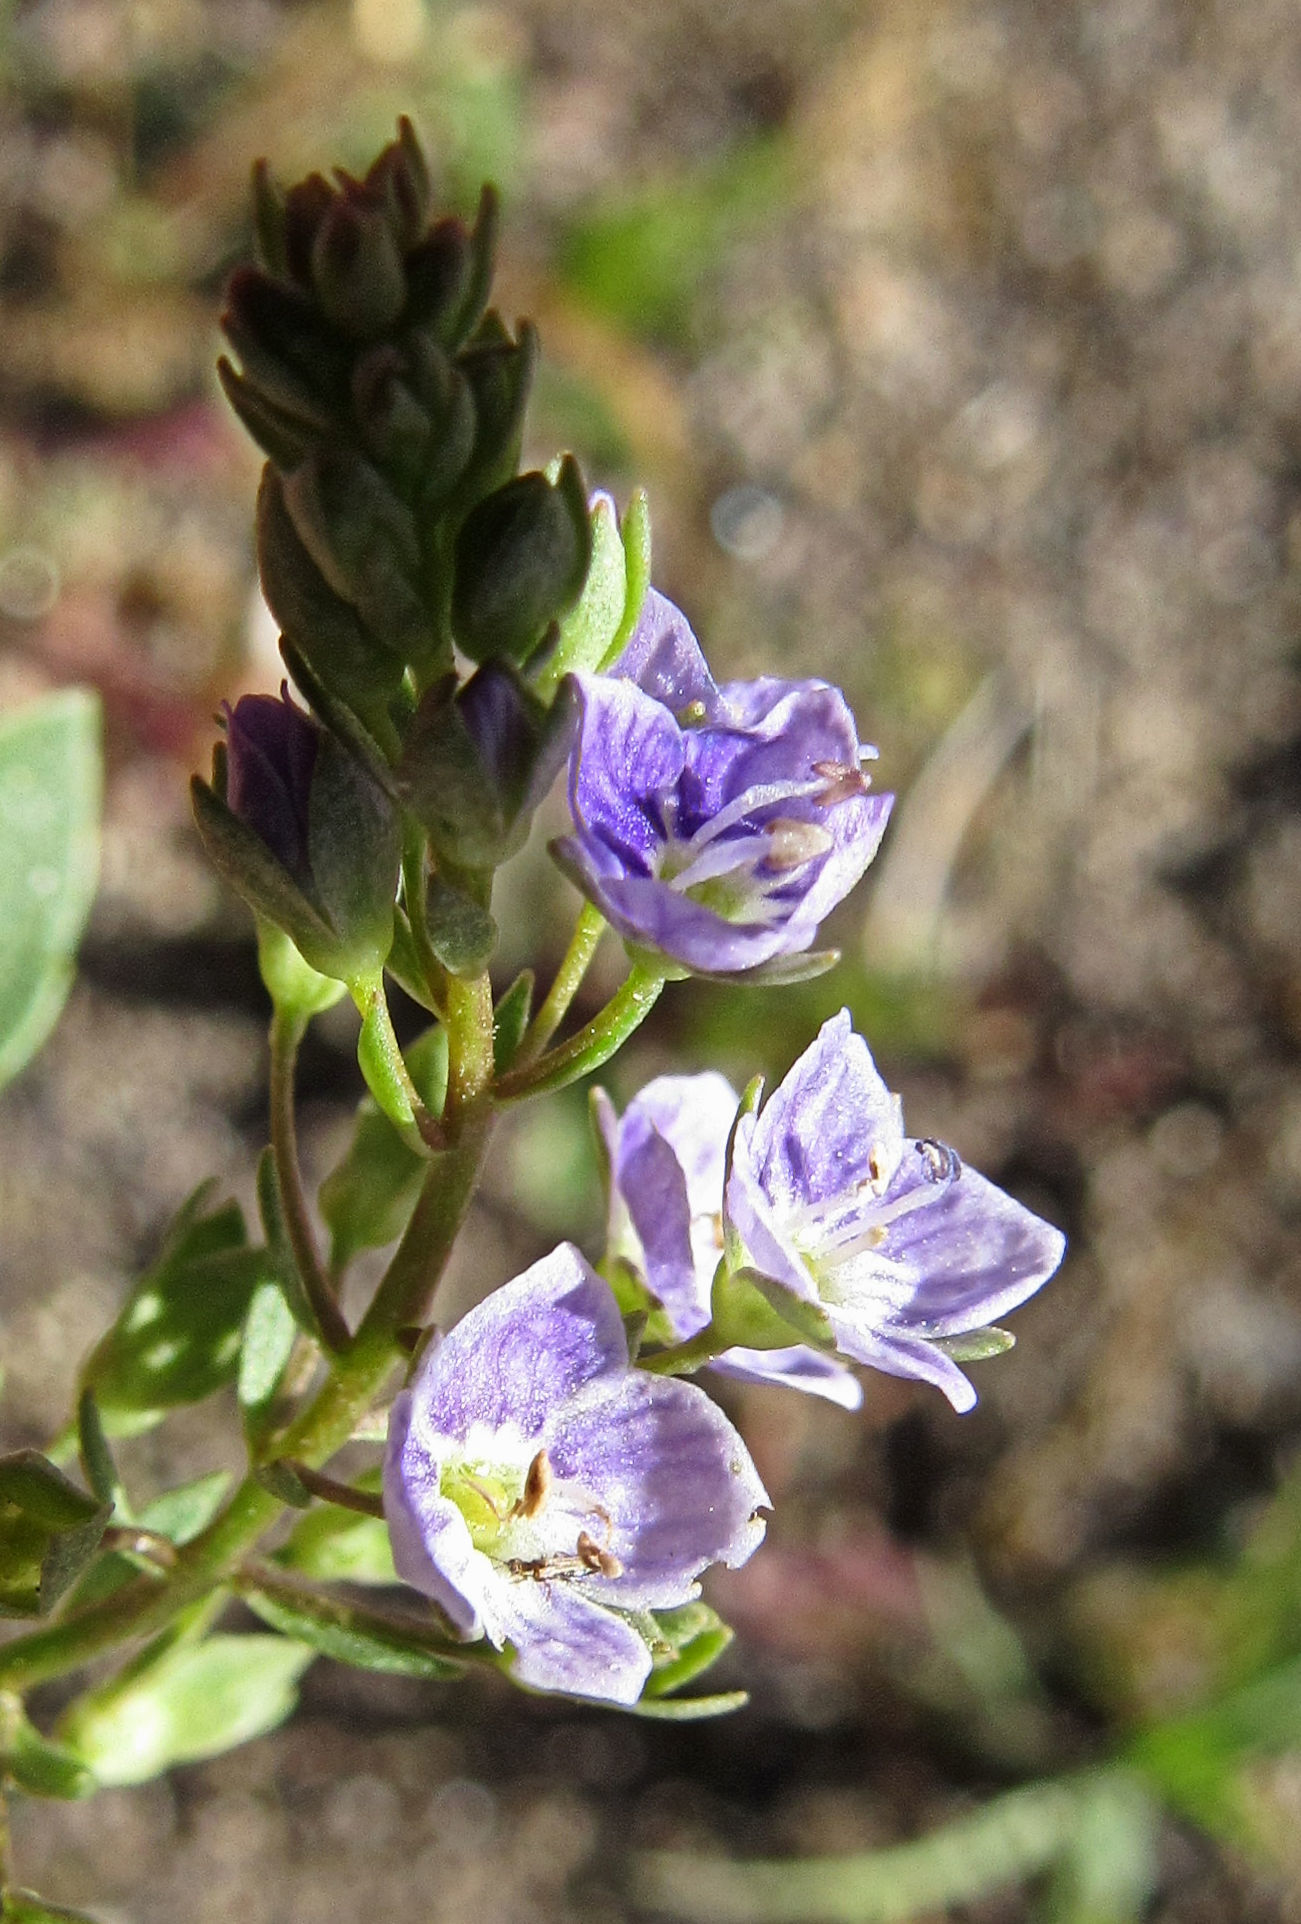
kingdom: Plantae
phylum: Tracheophyta
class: Magnoliopsida
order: Lamiales
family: Plantaginaceae
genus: Veronica
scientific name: Veronica anagallis-aquatica
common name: Water speedwell
